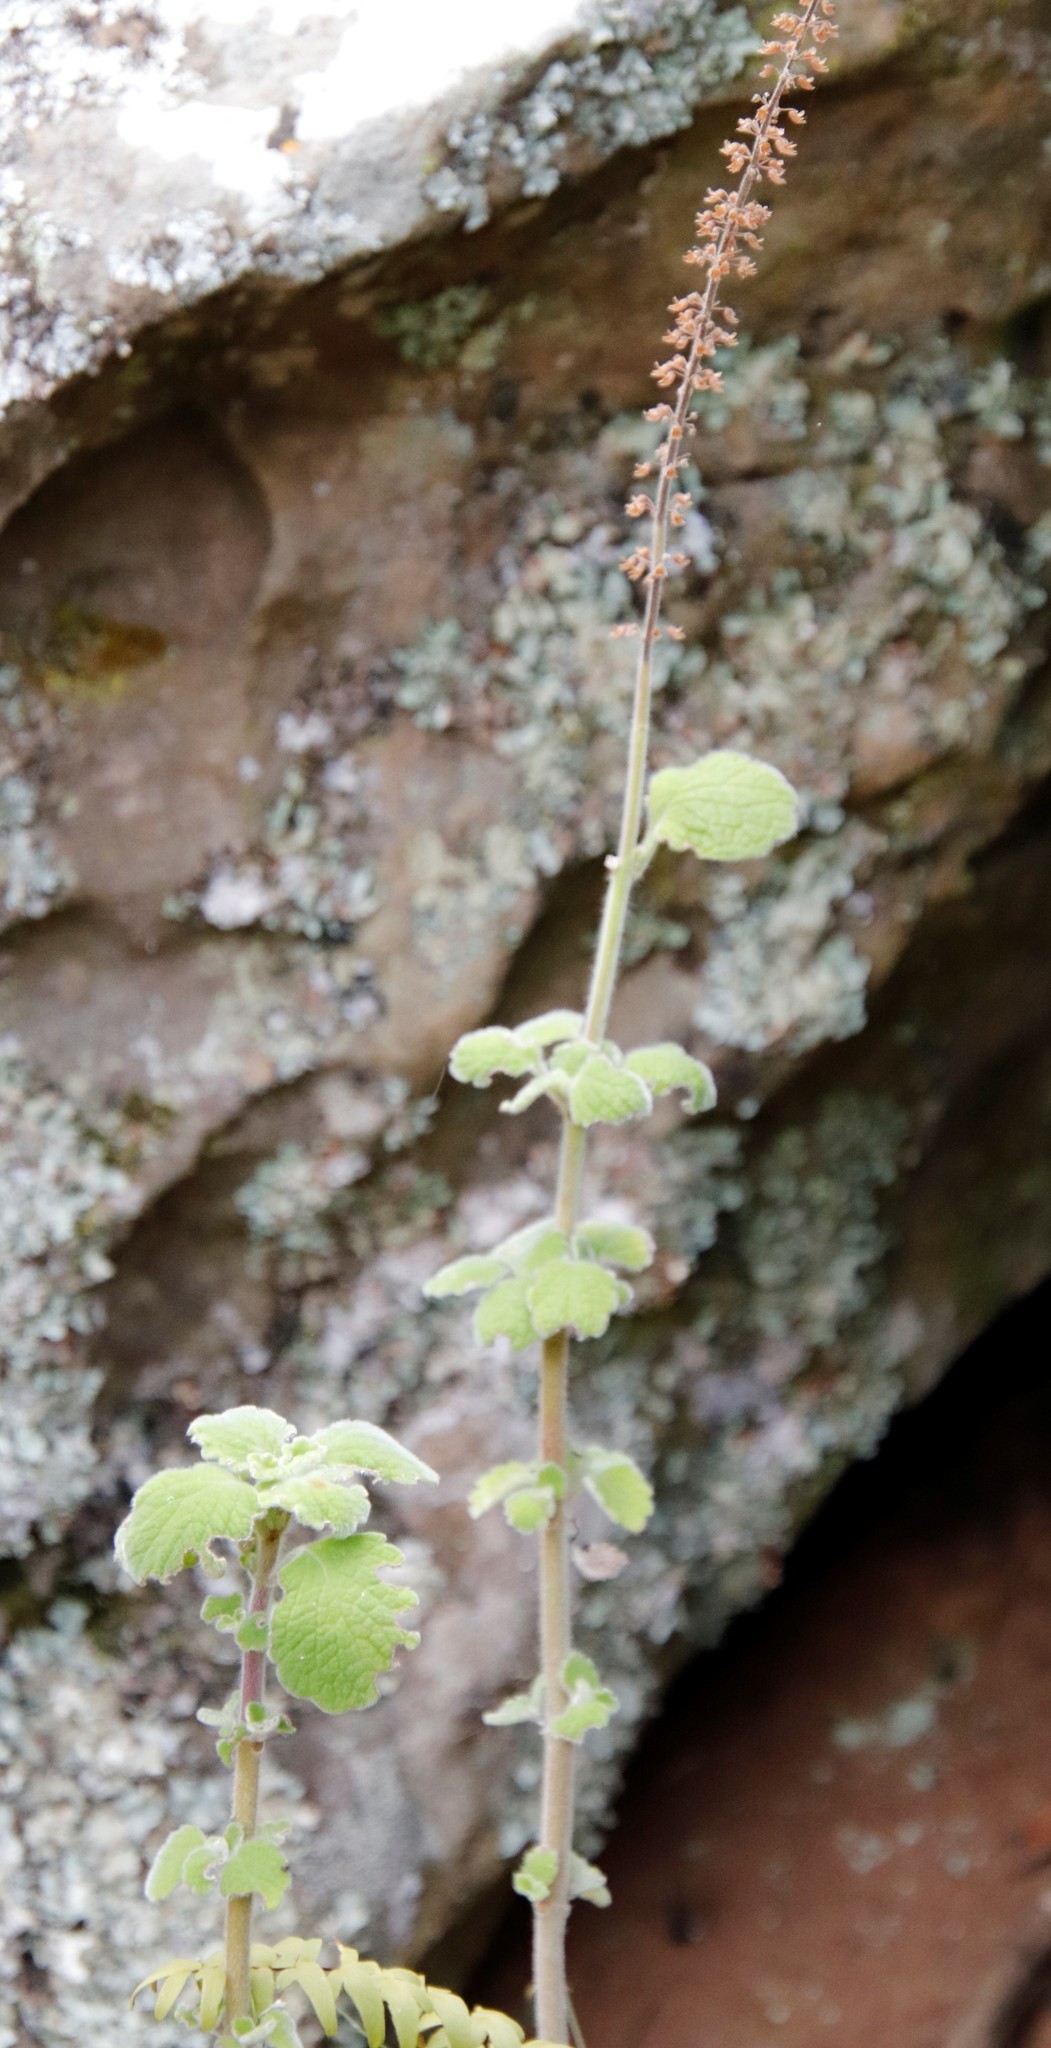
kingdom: Plantae
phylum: Tracheophyta
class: Magnoliopsida
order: Lamiales
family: Lamiaceae
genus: Coleus
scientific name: Coleus hadiensis
